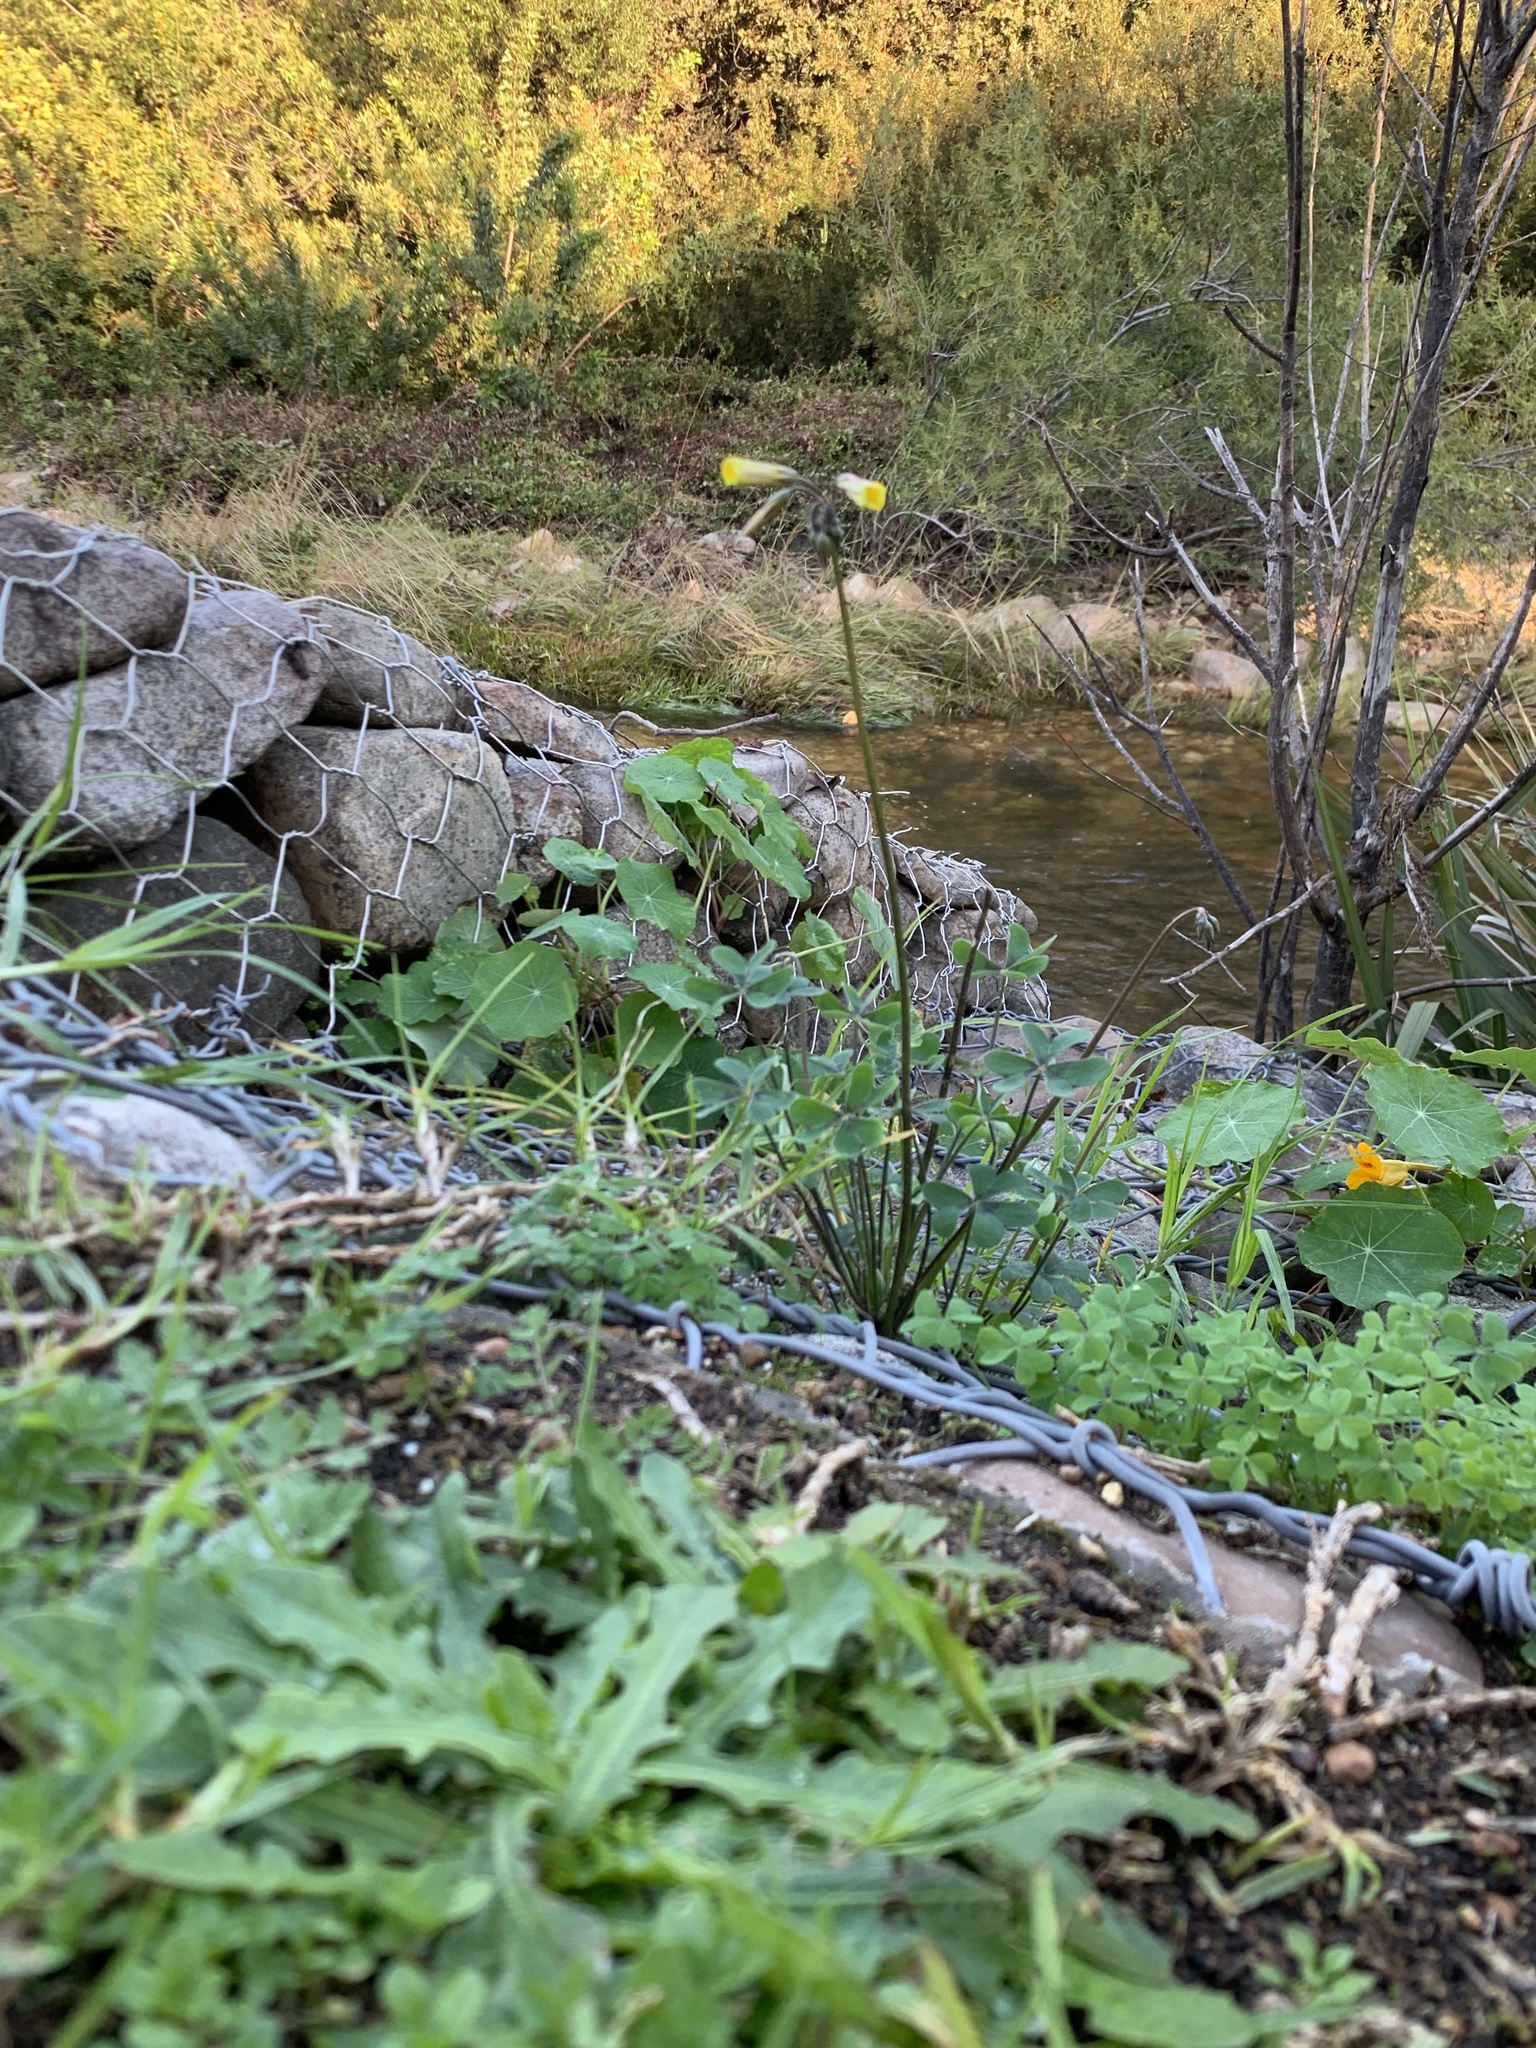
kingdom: Plantae
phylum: Tracheophyta
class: Magnoliopsida
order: Oxalidales
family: Oxalidaceae
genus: Oxalis
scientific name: Oxalis pes-caprae
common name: Bermuda-buttercup
